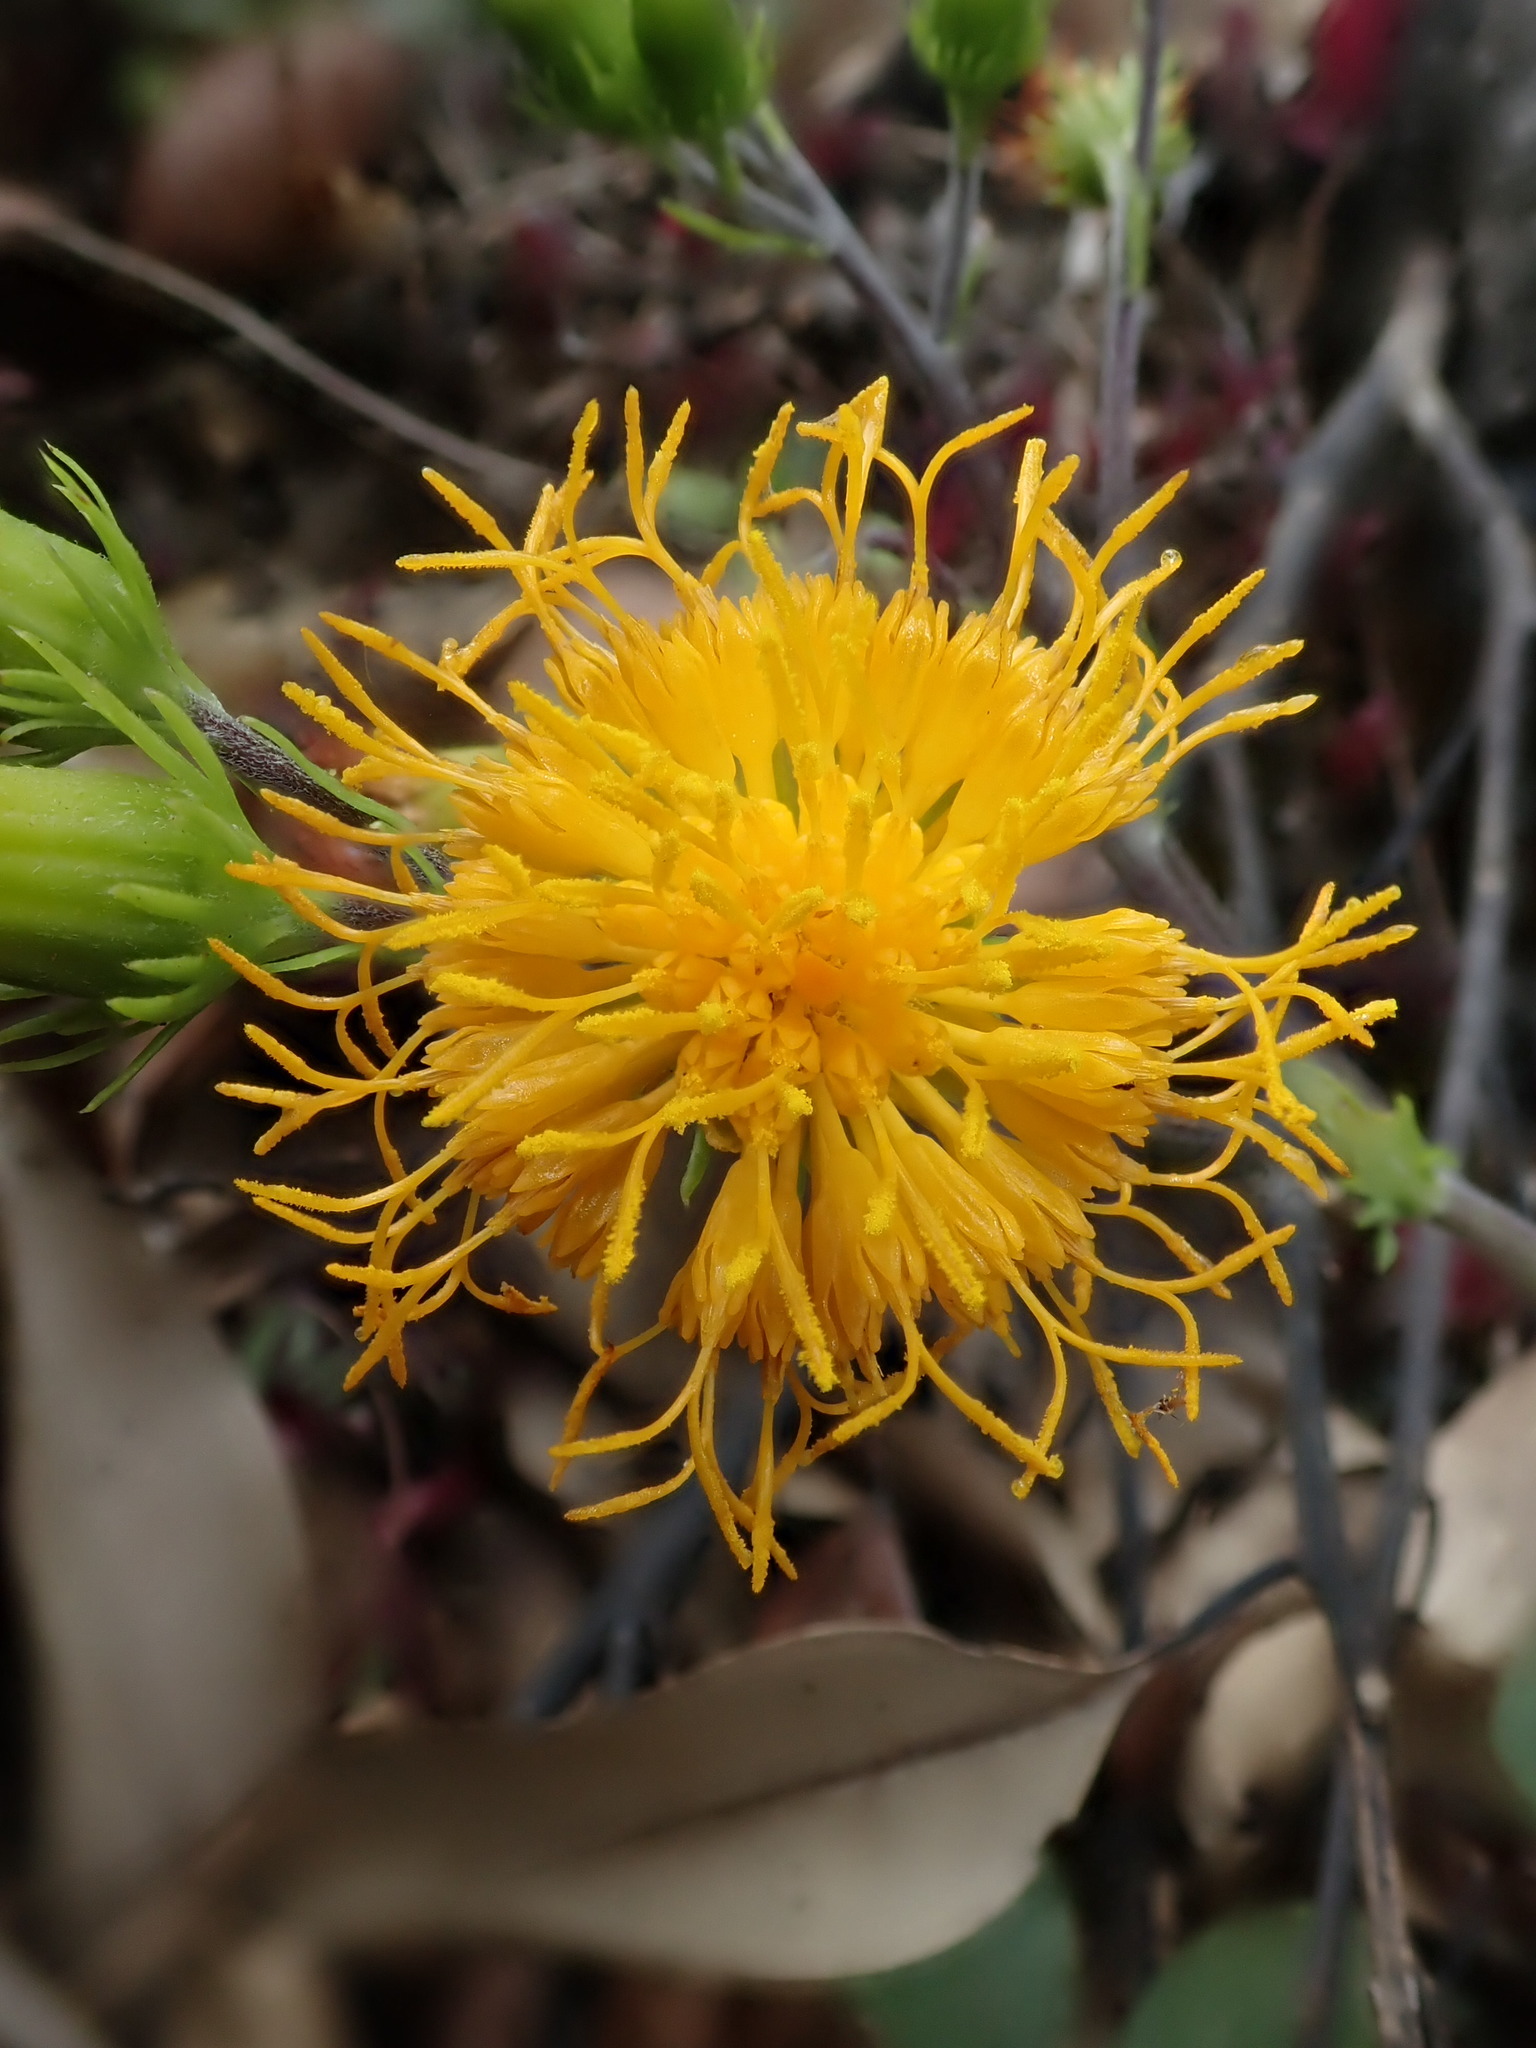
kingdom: Plantae
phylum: Tracheophyta
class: Magnoliopsida
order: Asterales
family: Asteraceae
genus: Gynura
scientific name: Gynura japonica
